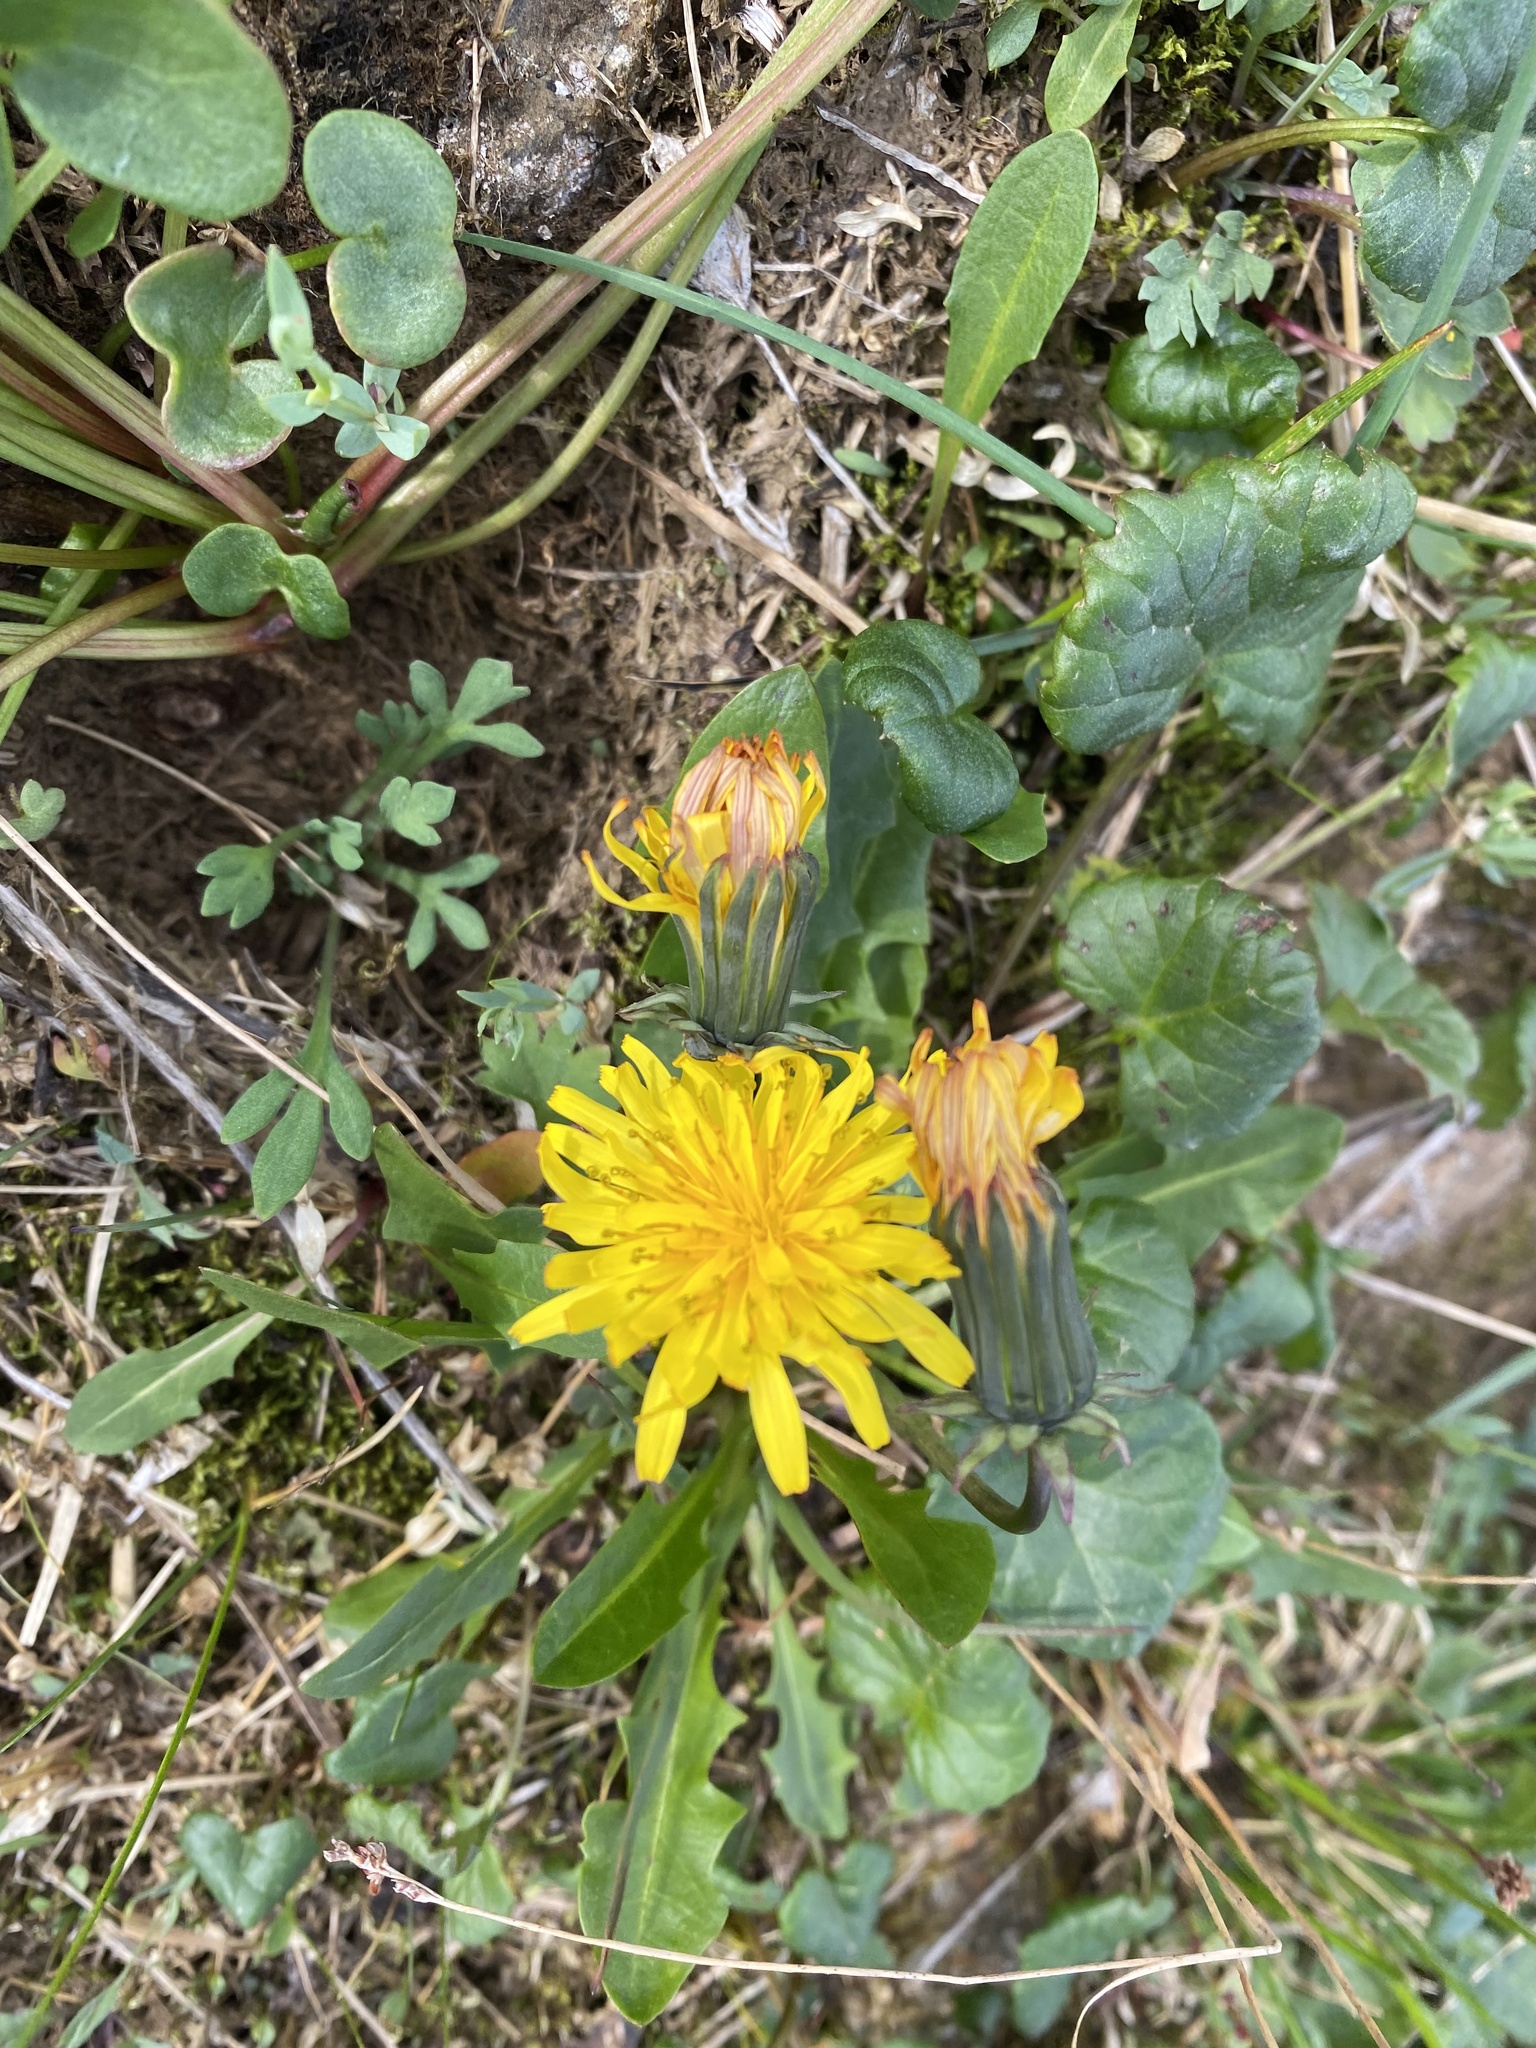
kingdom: Plantae
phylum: Tracheophyta
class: Magnoliopsida
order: Asterales
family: Asteraceae
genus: Taraxacum
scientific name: Taraxacum glabrum
